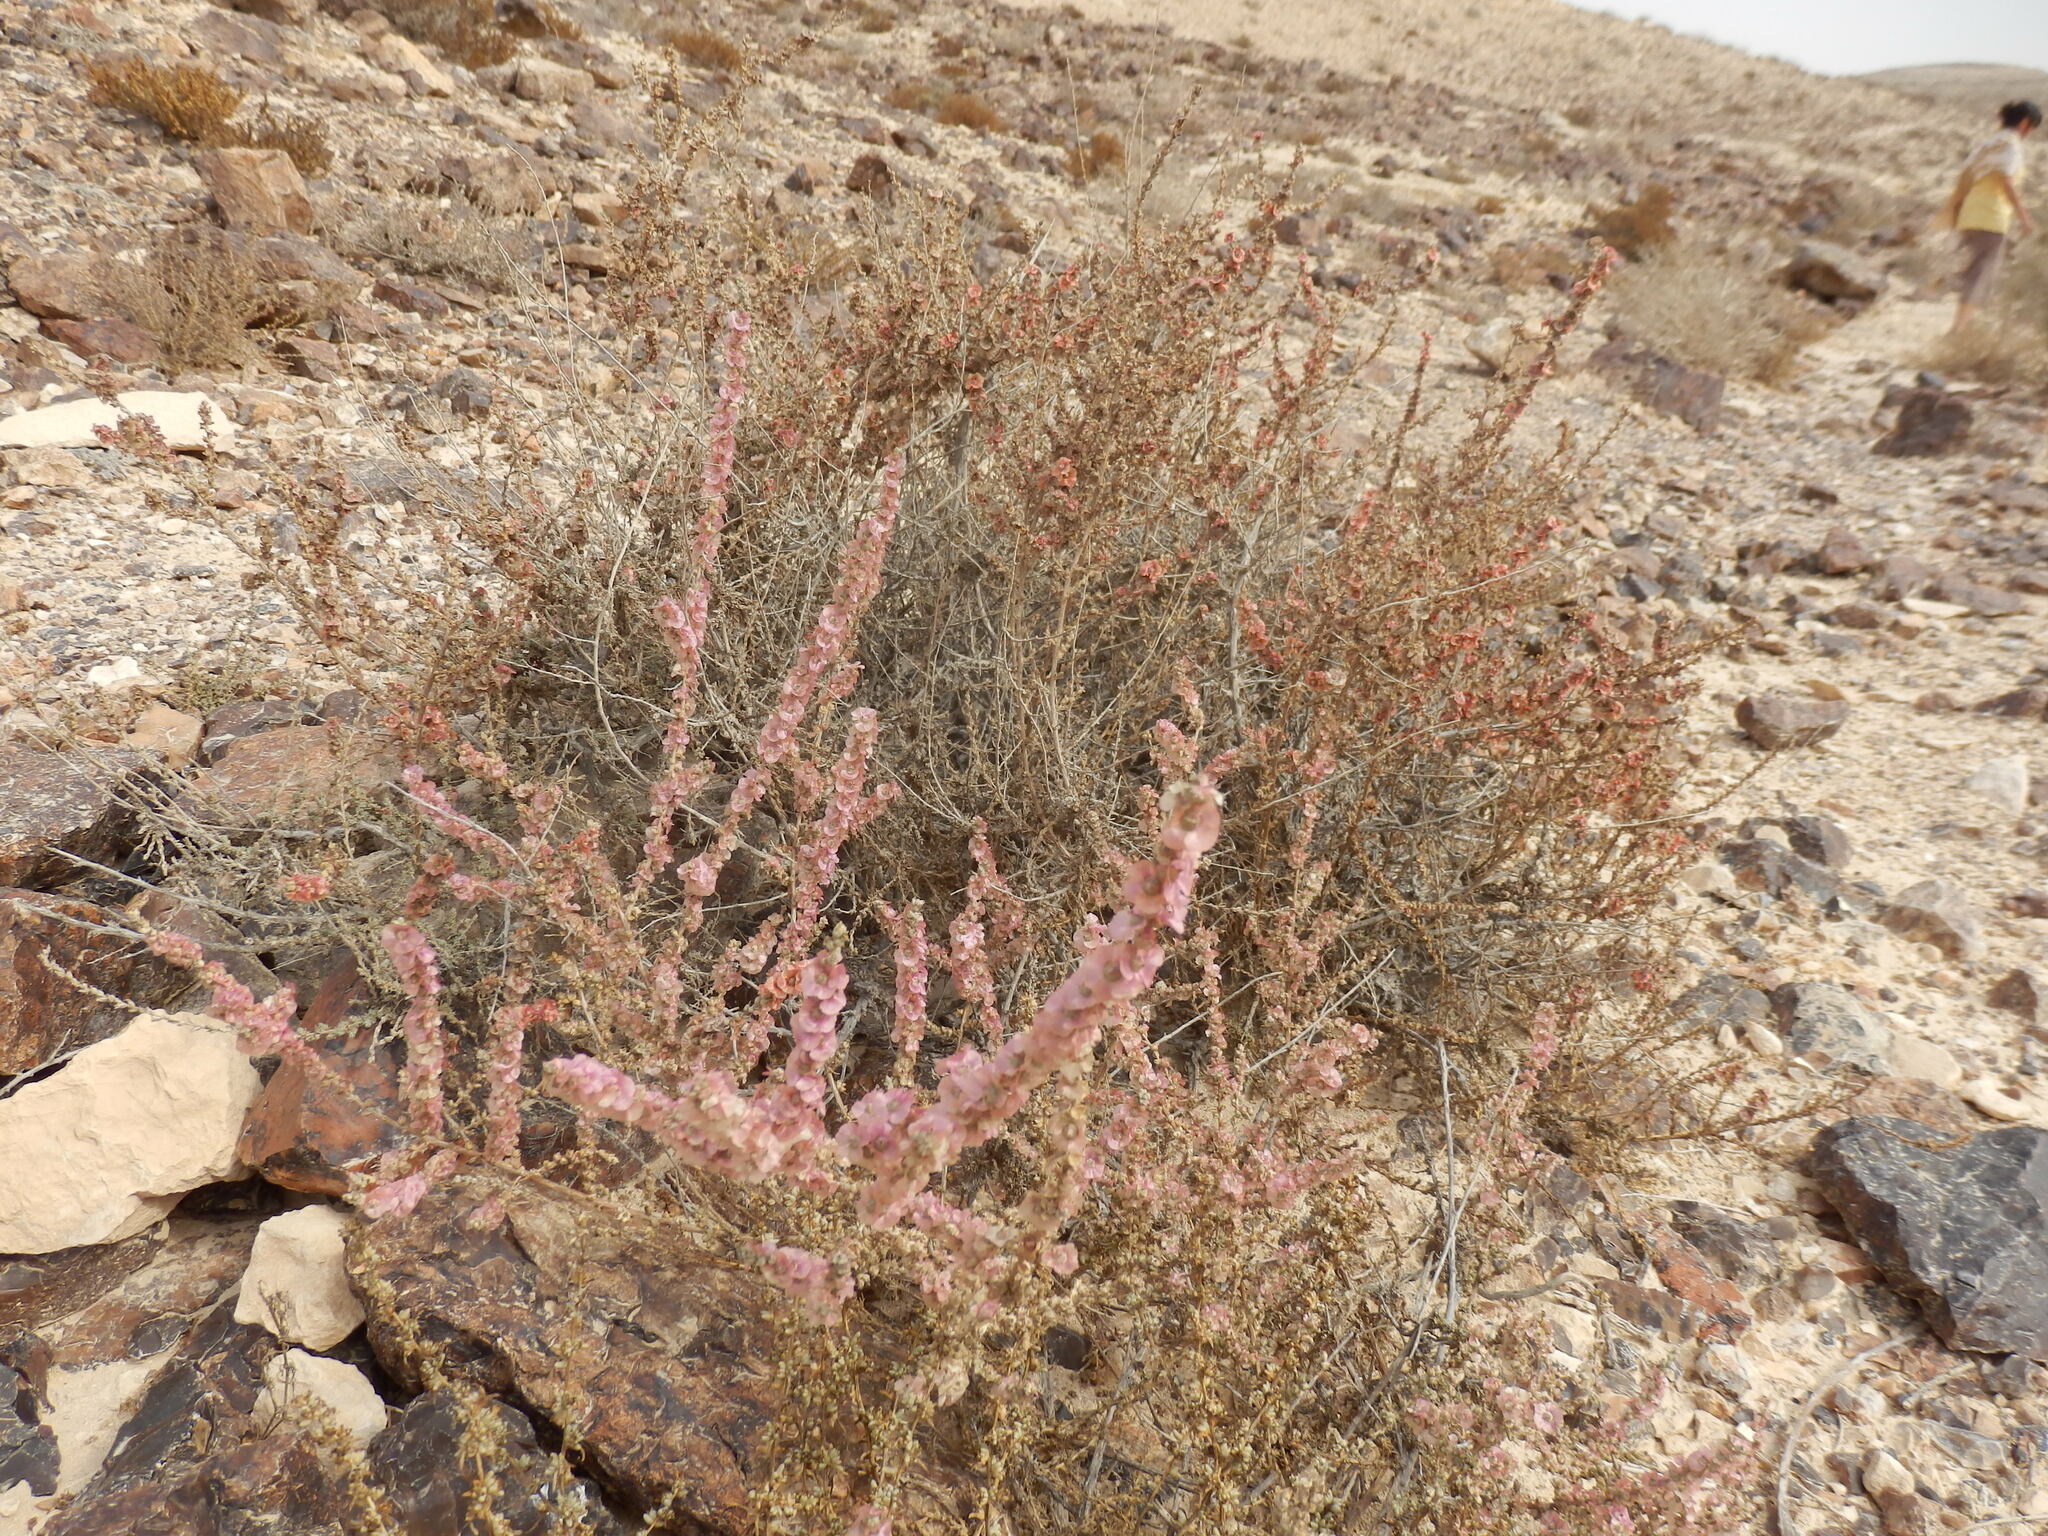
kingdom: Plantae
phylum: Tracheophyta
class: Magnoliopsida
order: Caryophyllales
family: Amaranthaceae
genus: Nitrosalsola
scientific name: Nitrosalsola vermiculata
